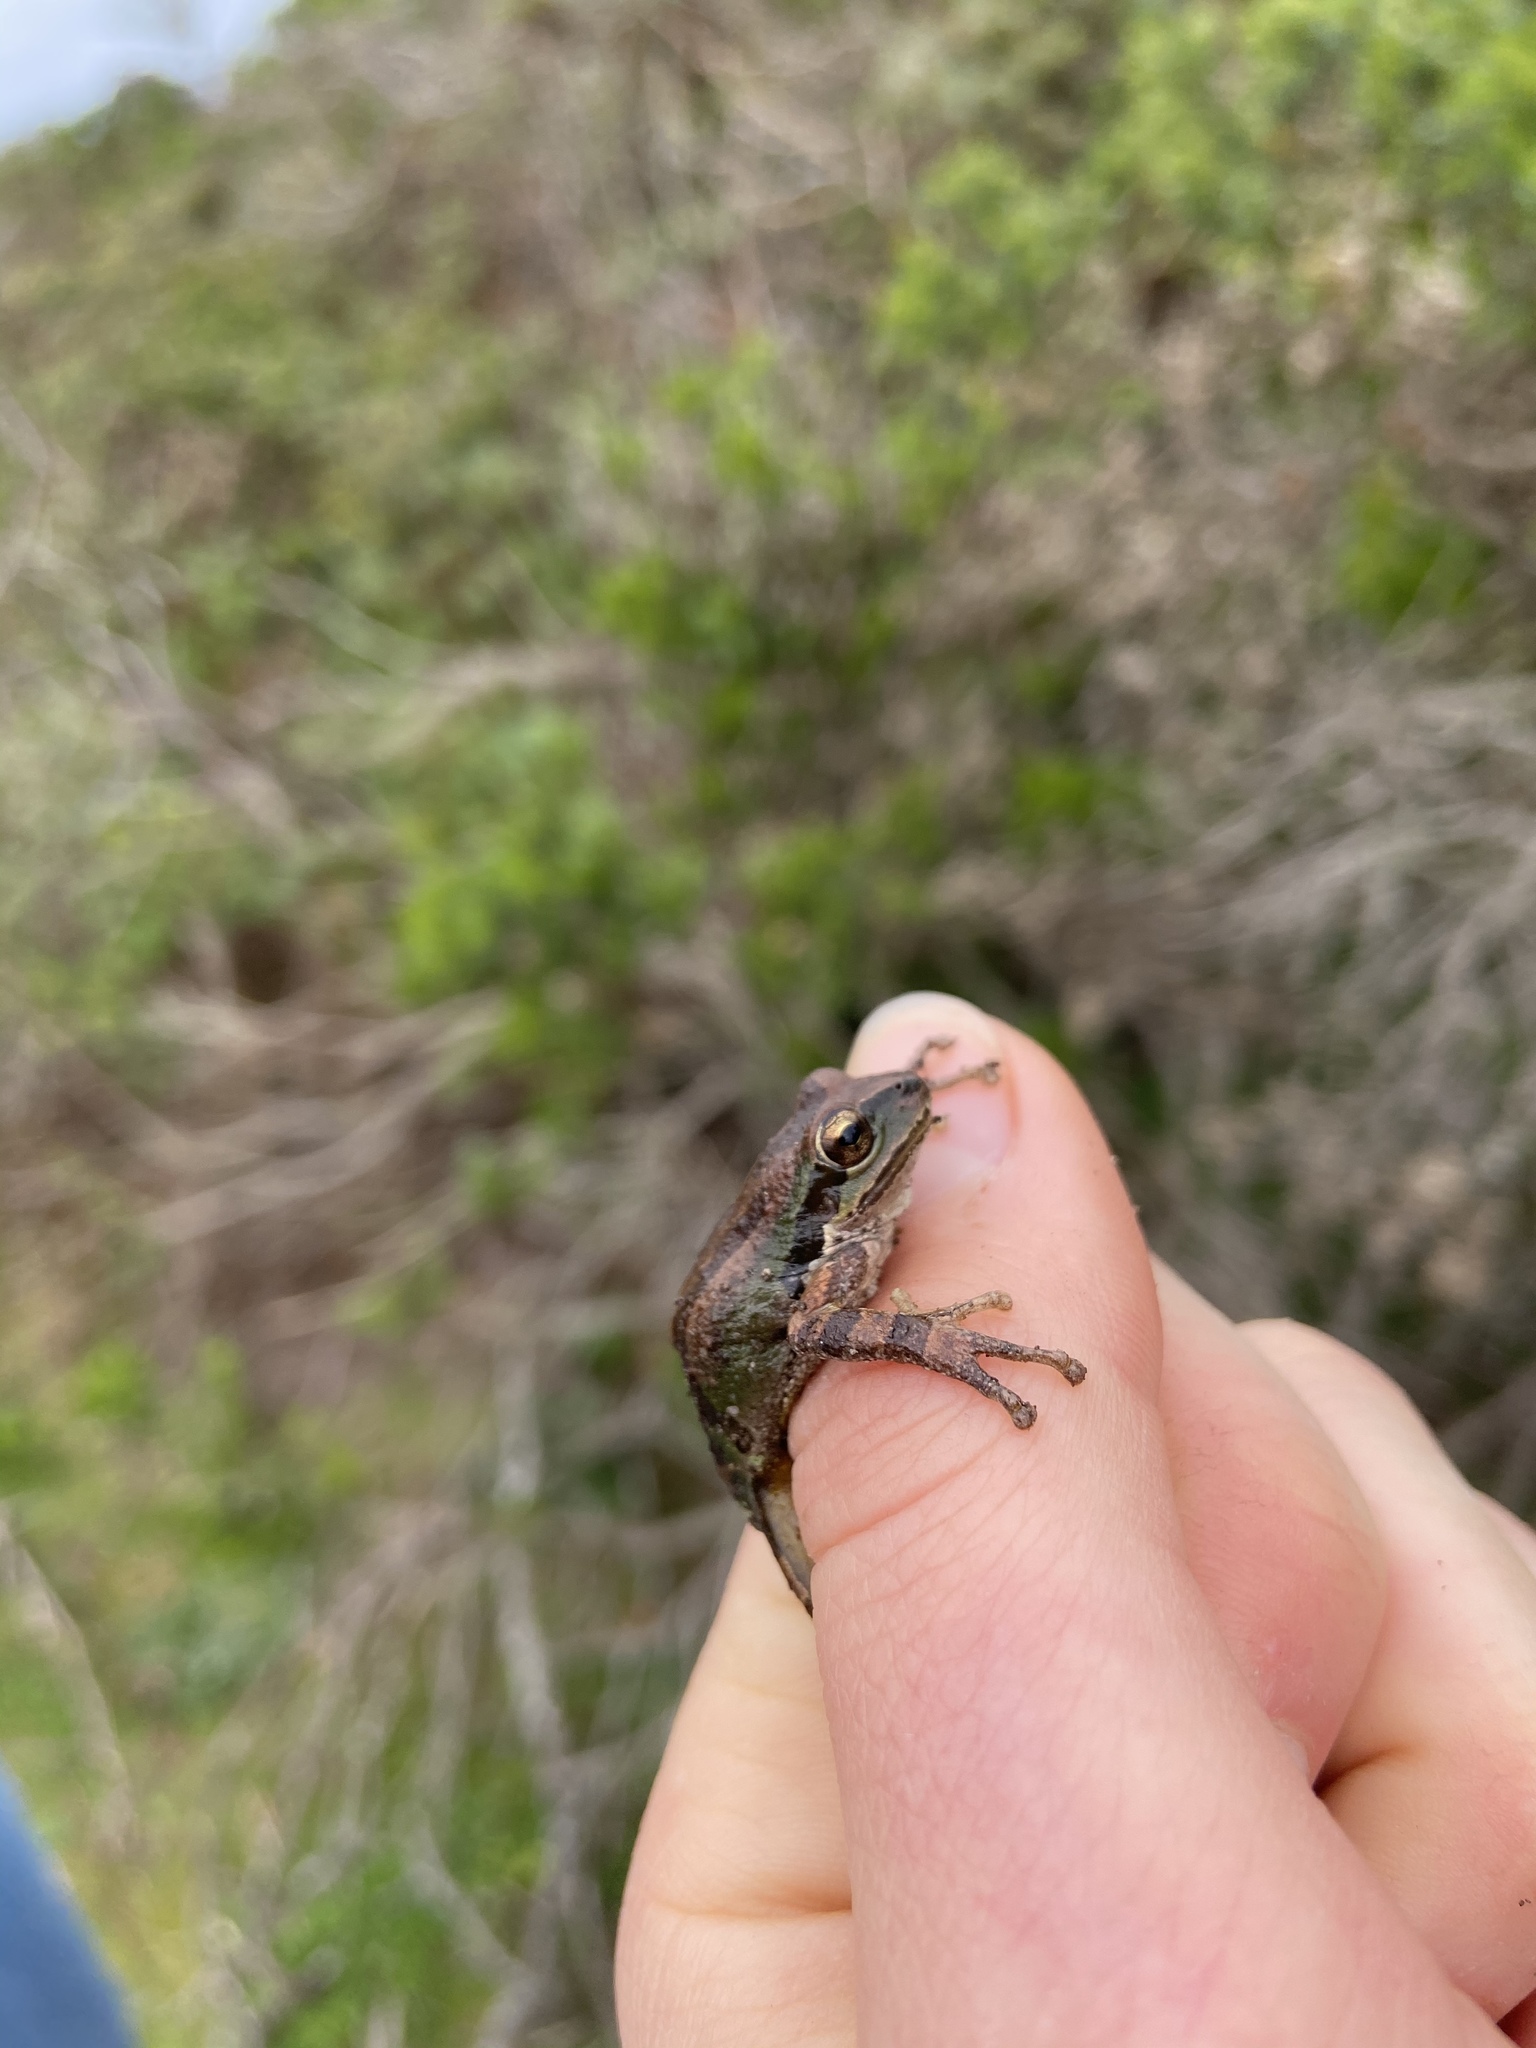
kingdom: Animalia
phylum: Chordata
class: Amphibia
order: Anura
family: Hylidae
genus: Pseudacris
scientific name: Pseudacris regilla
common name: Pacific chorus frog
